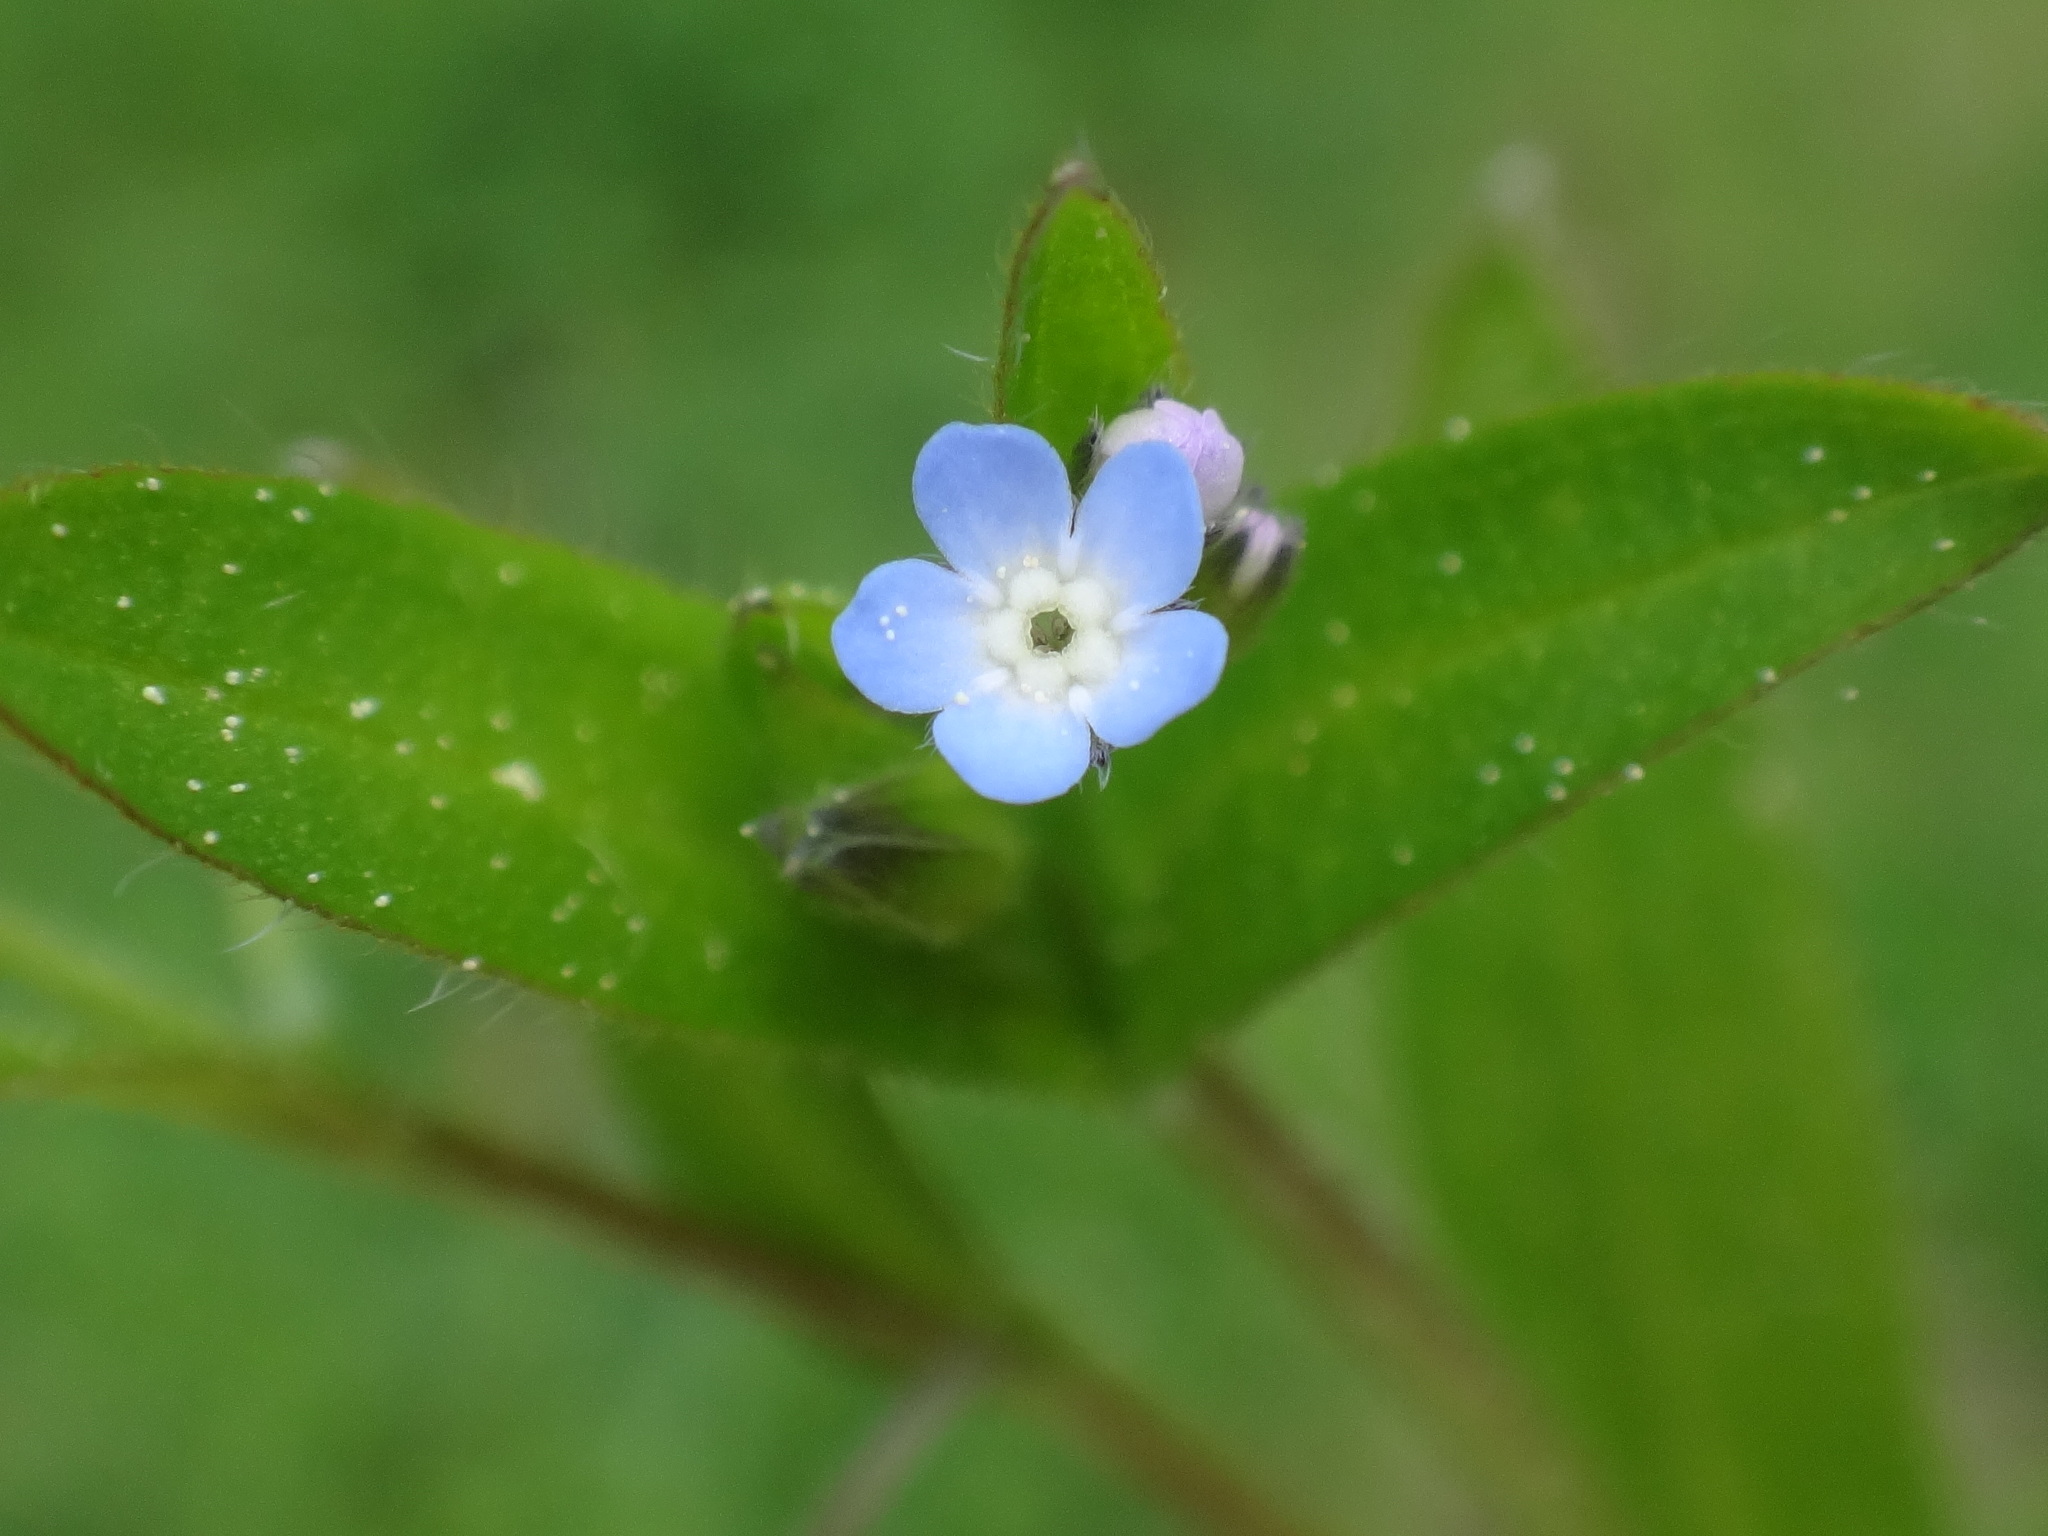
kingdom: Plantae
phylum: Tracheophyta
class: Magnoliopsida
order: Boraginales
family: Boraginaceae
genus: Myosotis
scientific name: Myosotis sparsiflora
